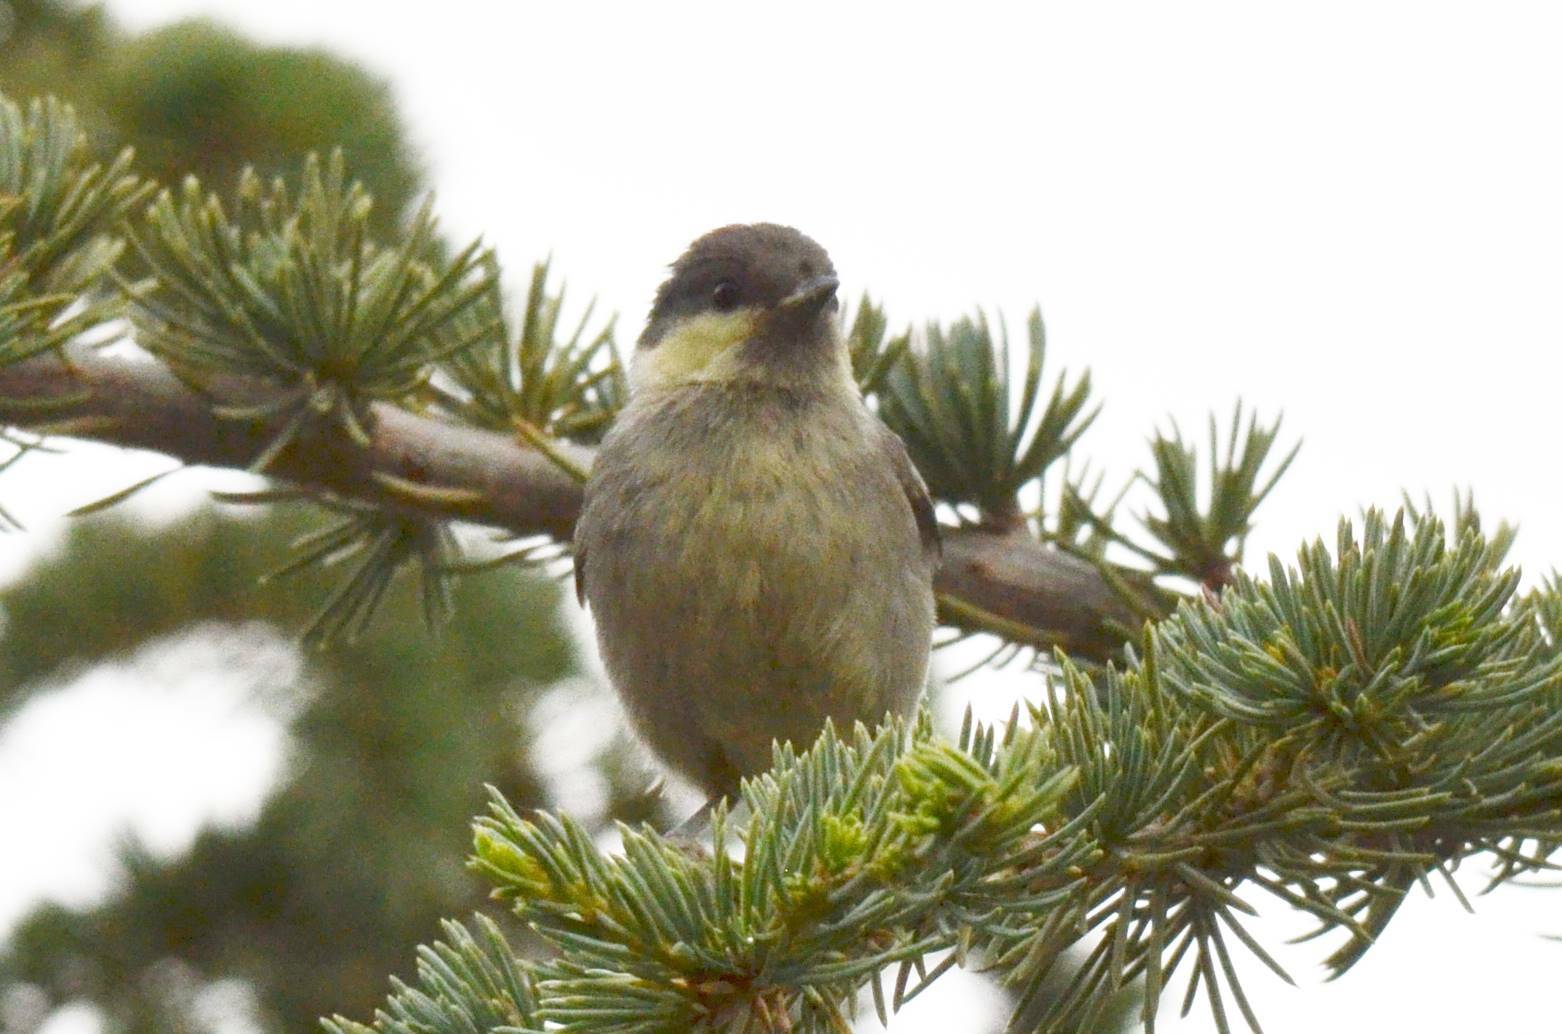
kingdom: Animalia
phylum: Chordata
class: Aves
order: Passeriformes
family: Paridae
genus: Periparus
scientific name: Periparus ater
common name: Coal tit
